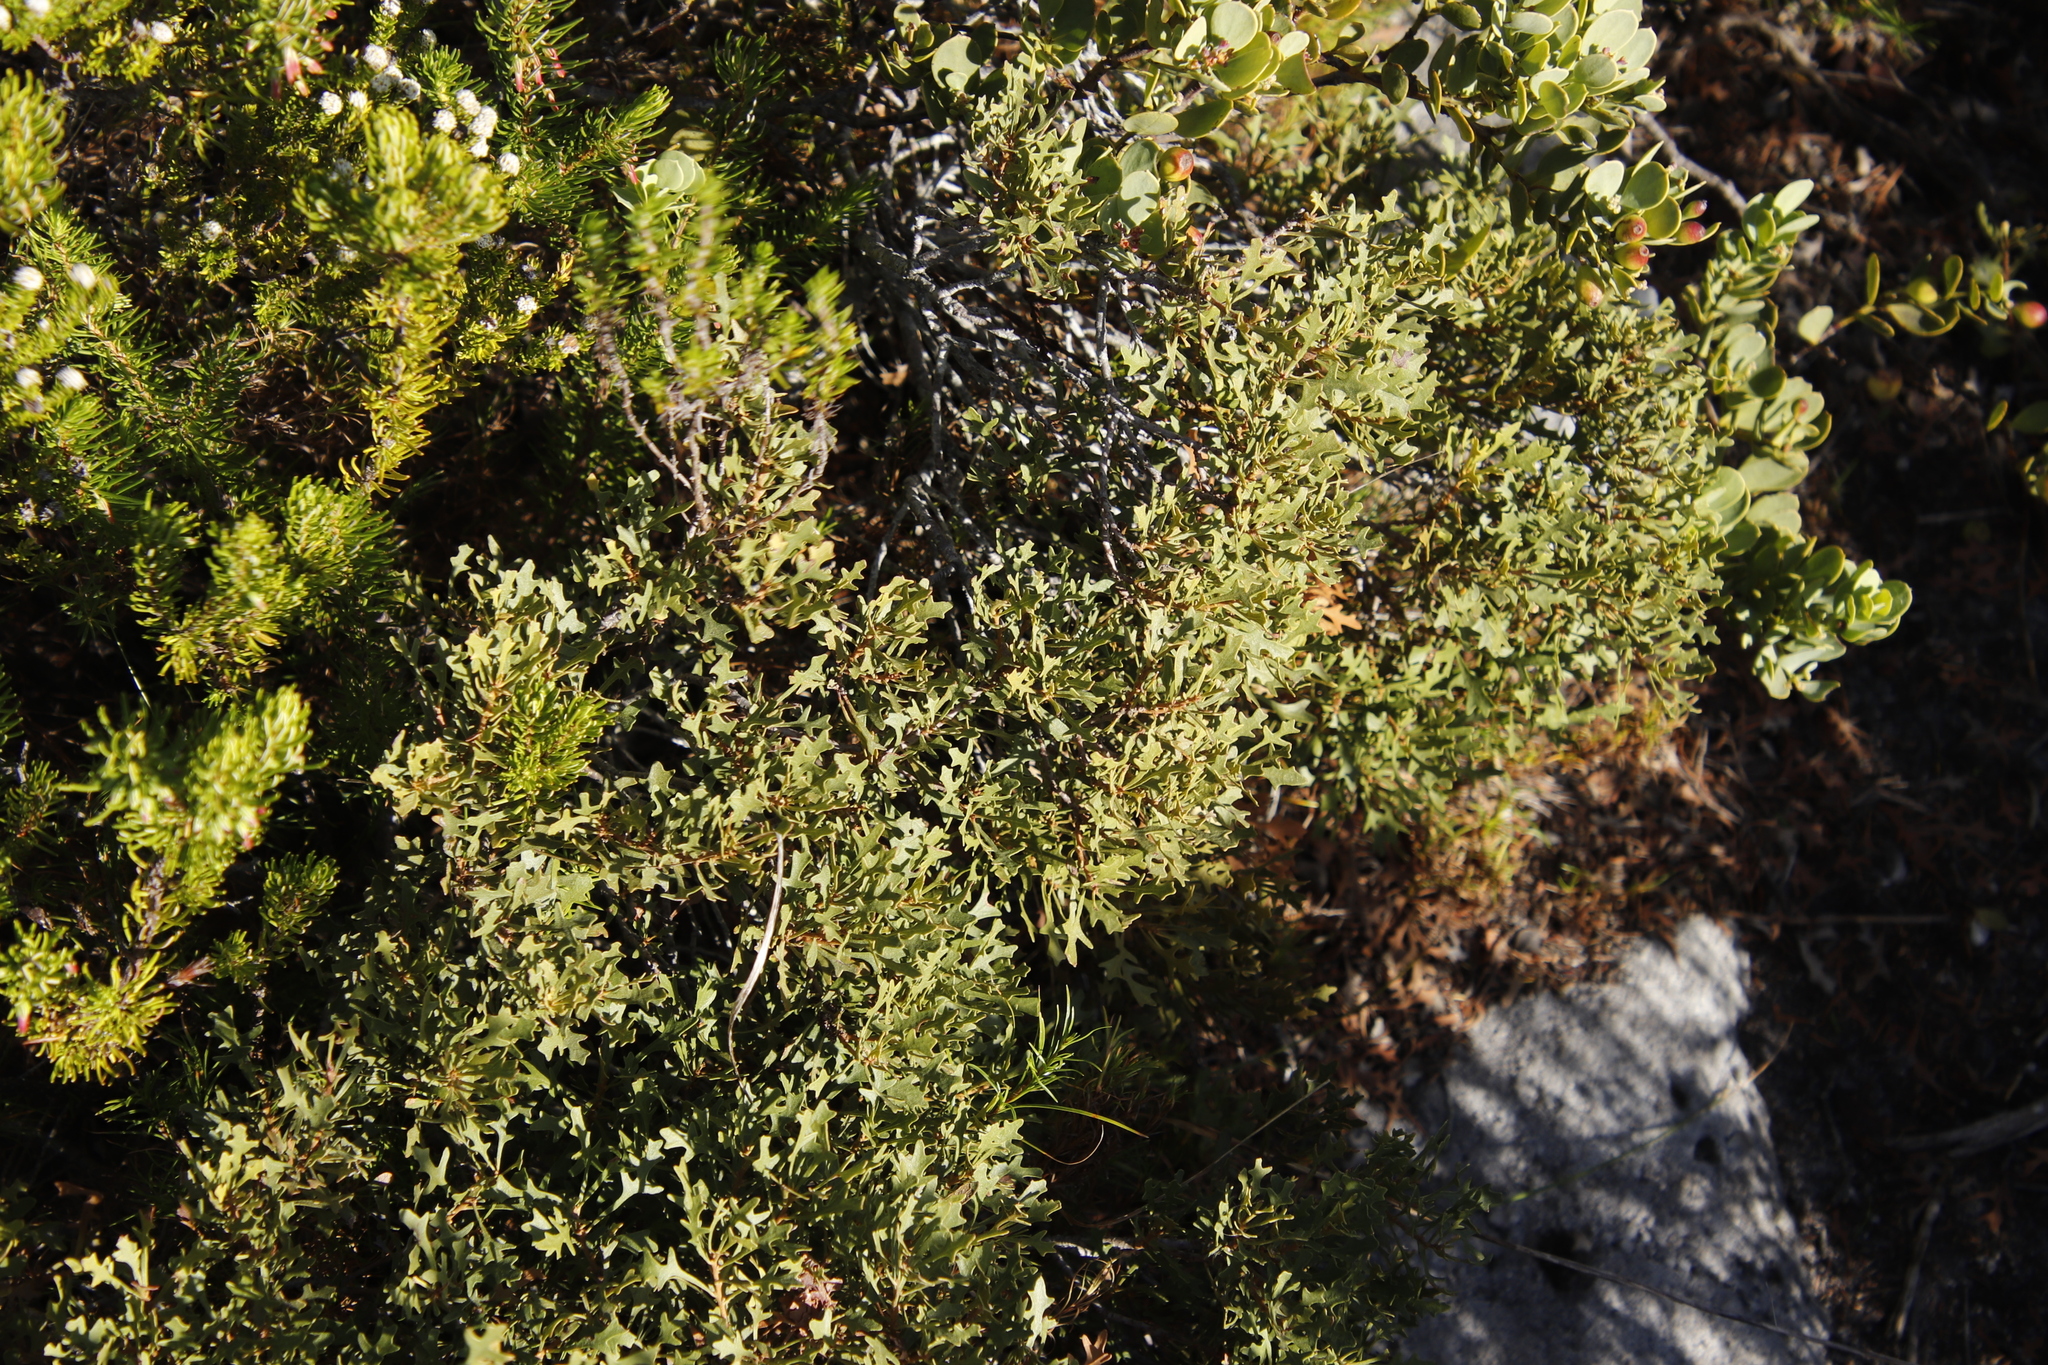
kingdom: Plantae
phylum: Tracheophyta
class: Magnoliopsida
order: Fagales
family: Myricaceae
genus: Morella
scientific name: Morella quercifolia
